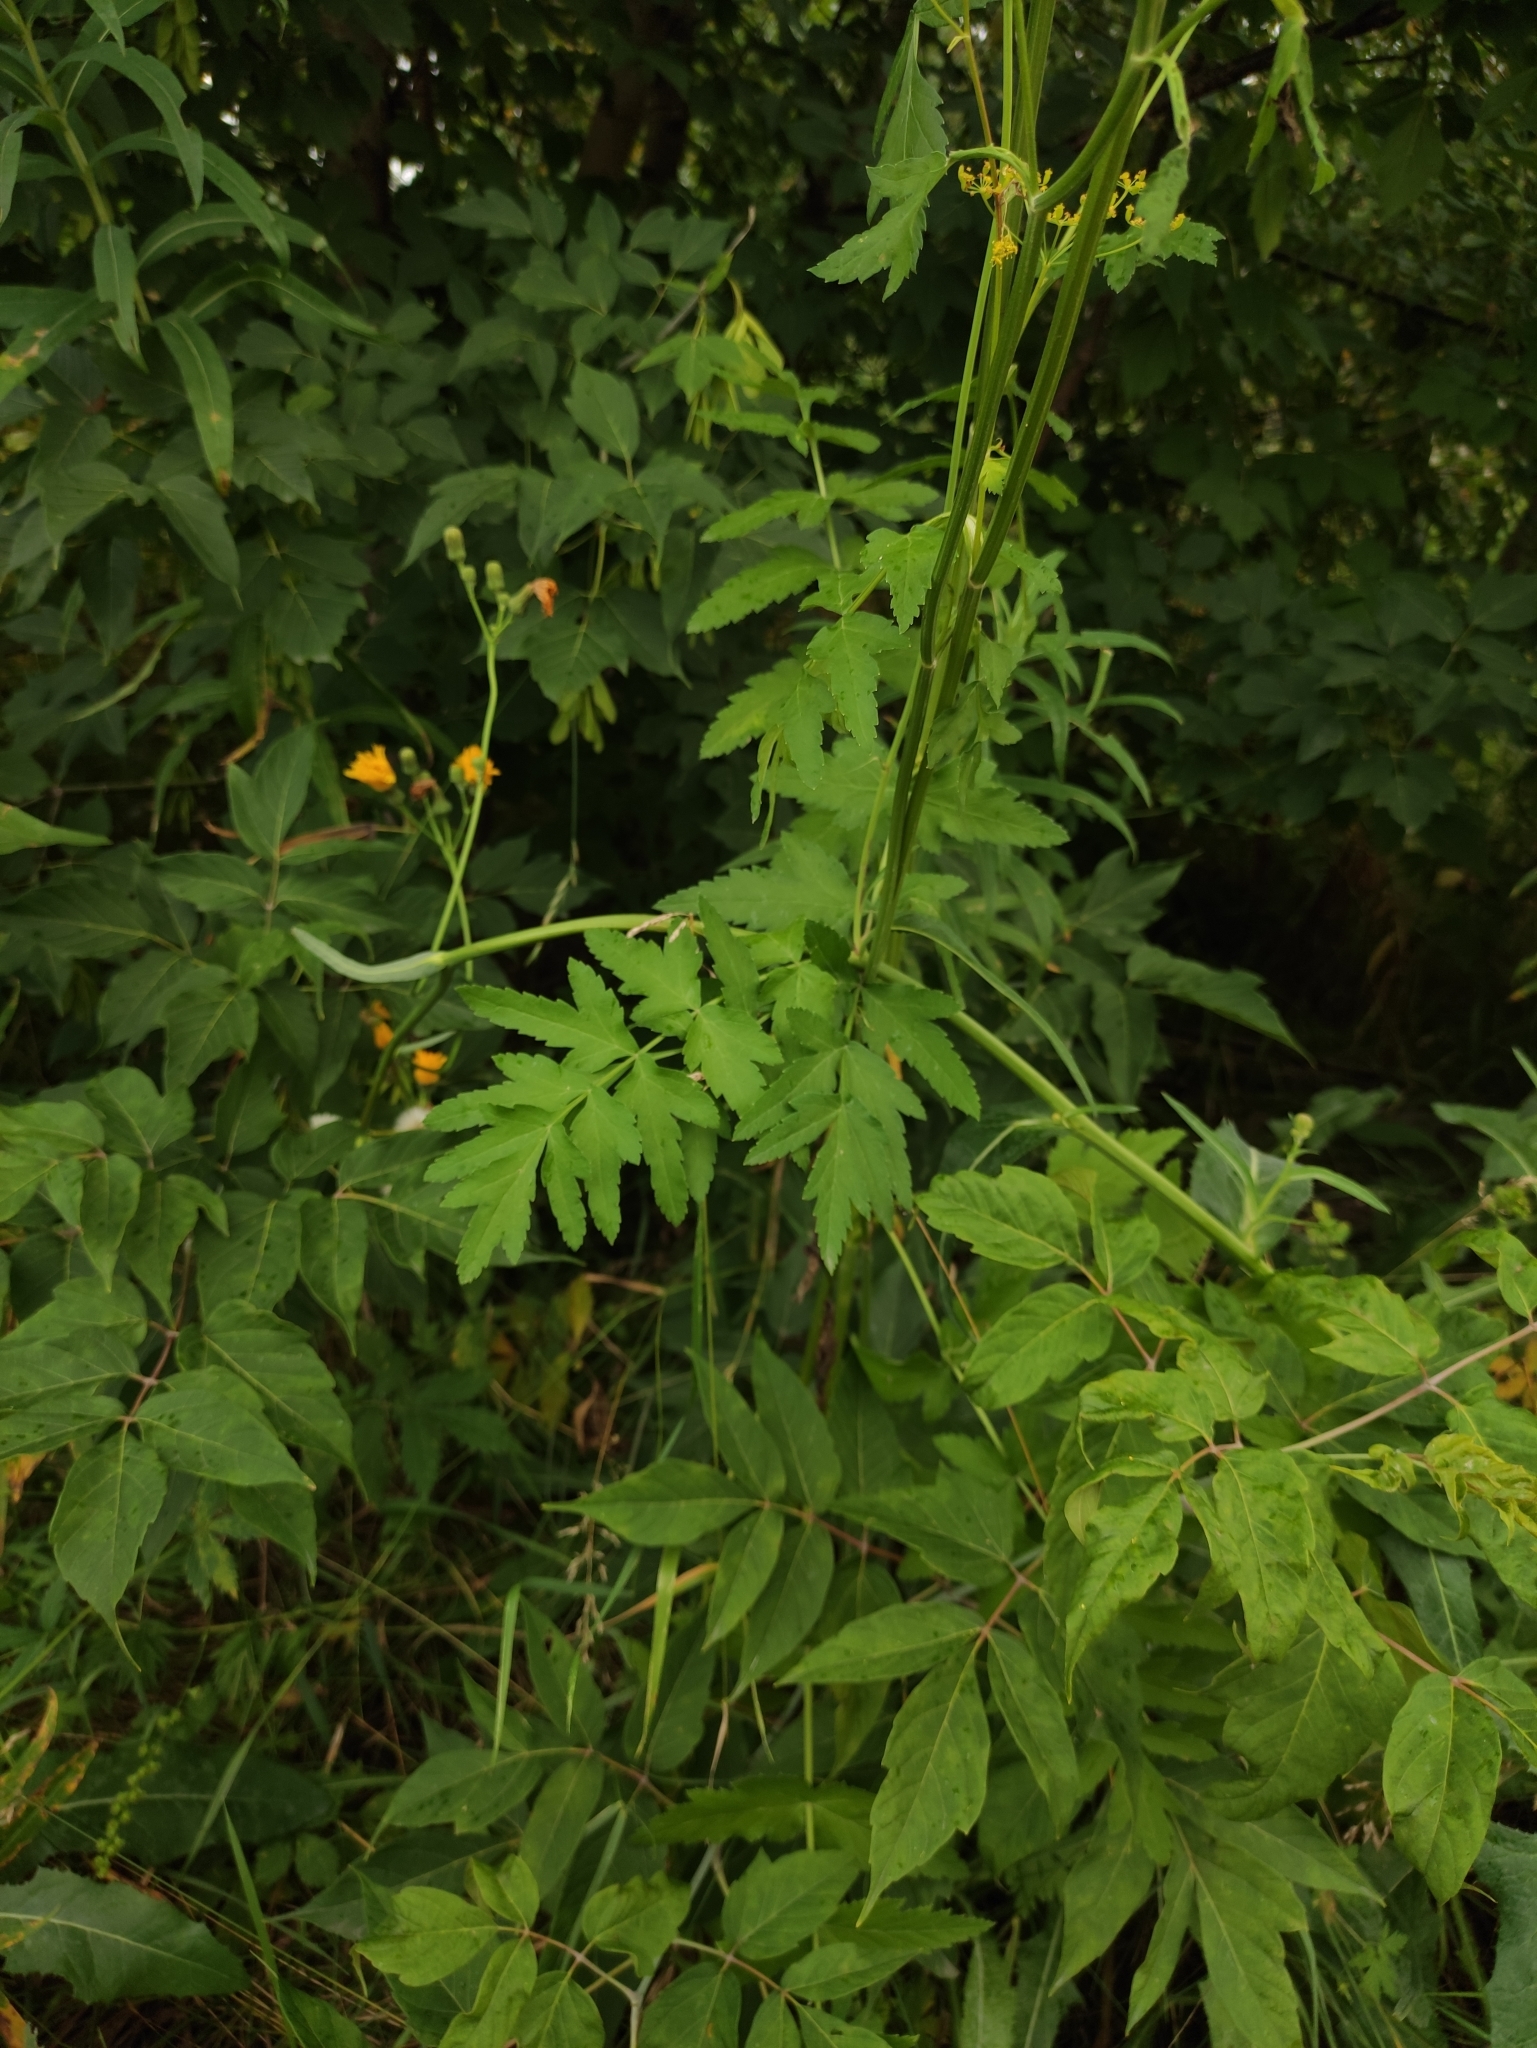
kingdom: Plantae
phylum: Tracheophyta
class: Magnoliopsida
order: Apiales
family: Apiaceae
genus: Pastinaca
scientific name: Pastinaca sativa
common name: Wild parsnip
